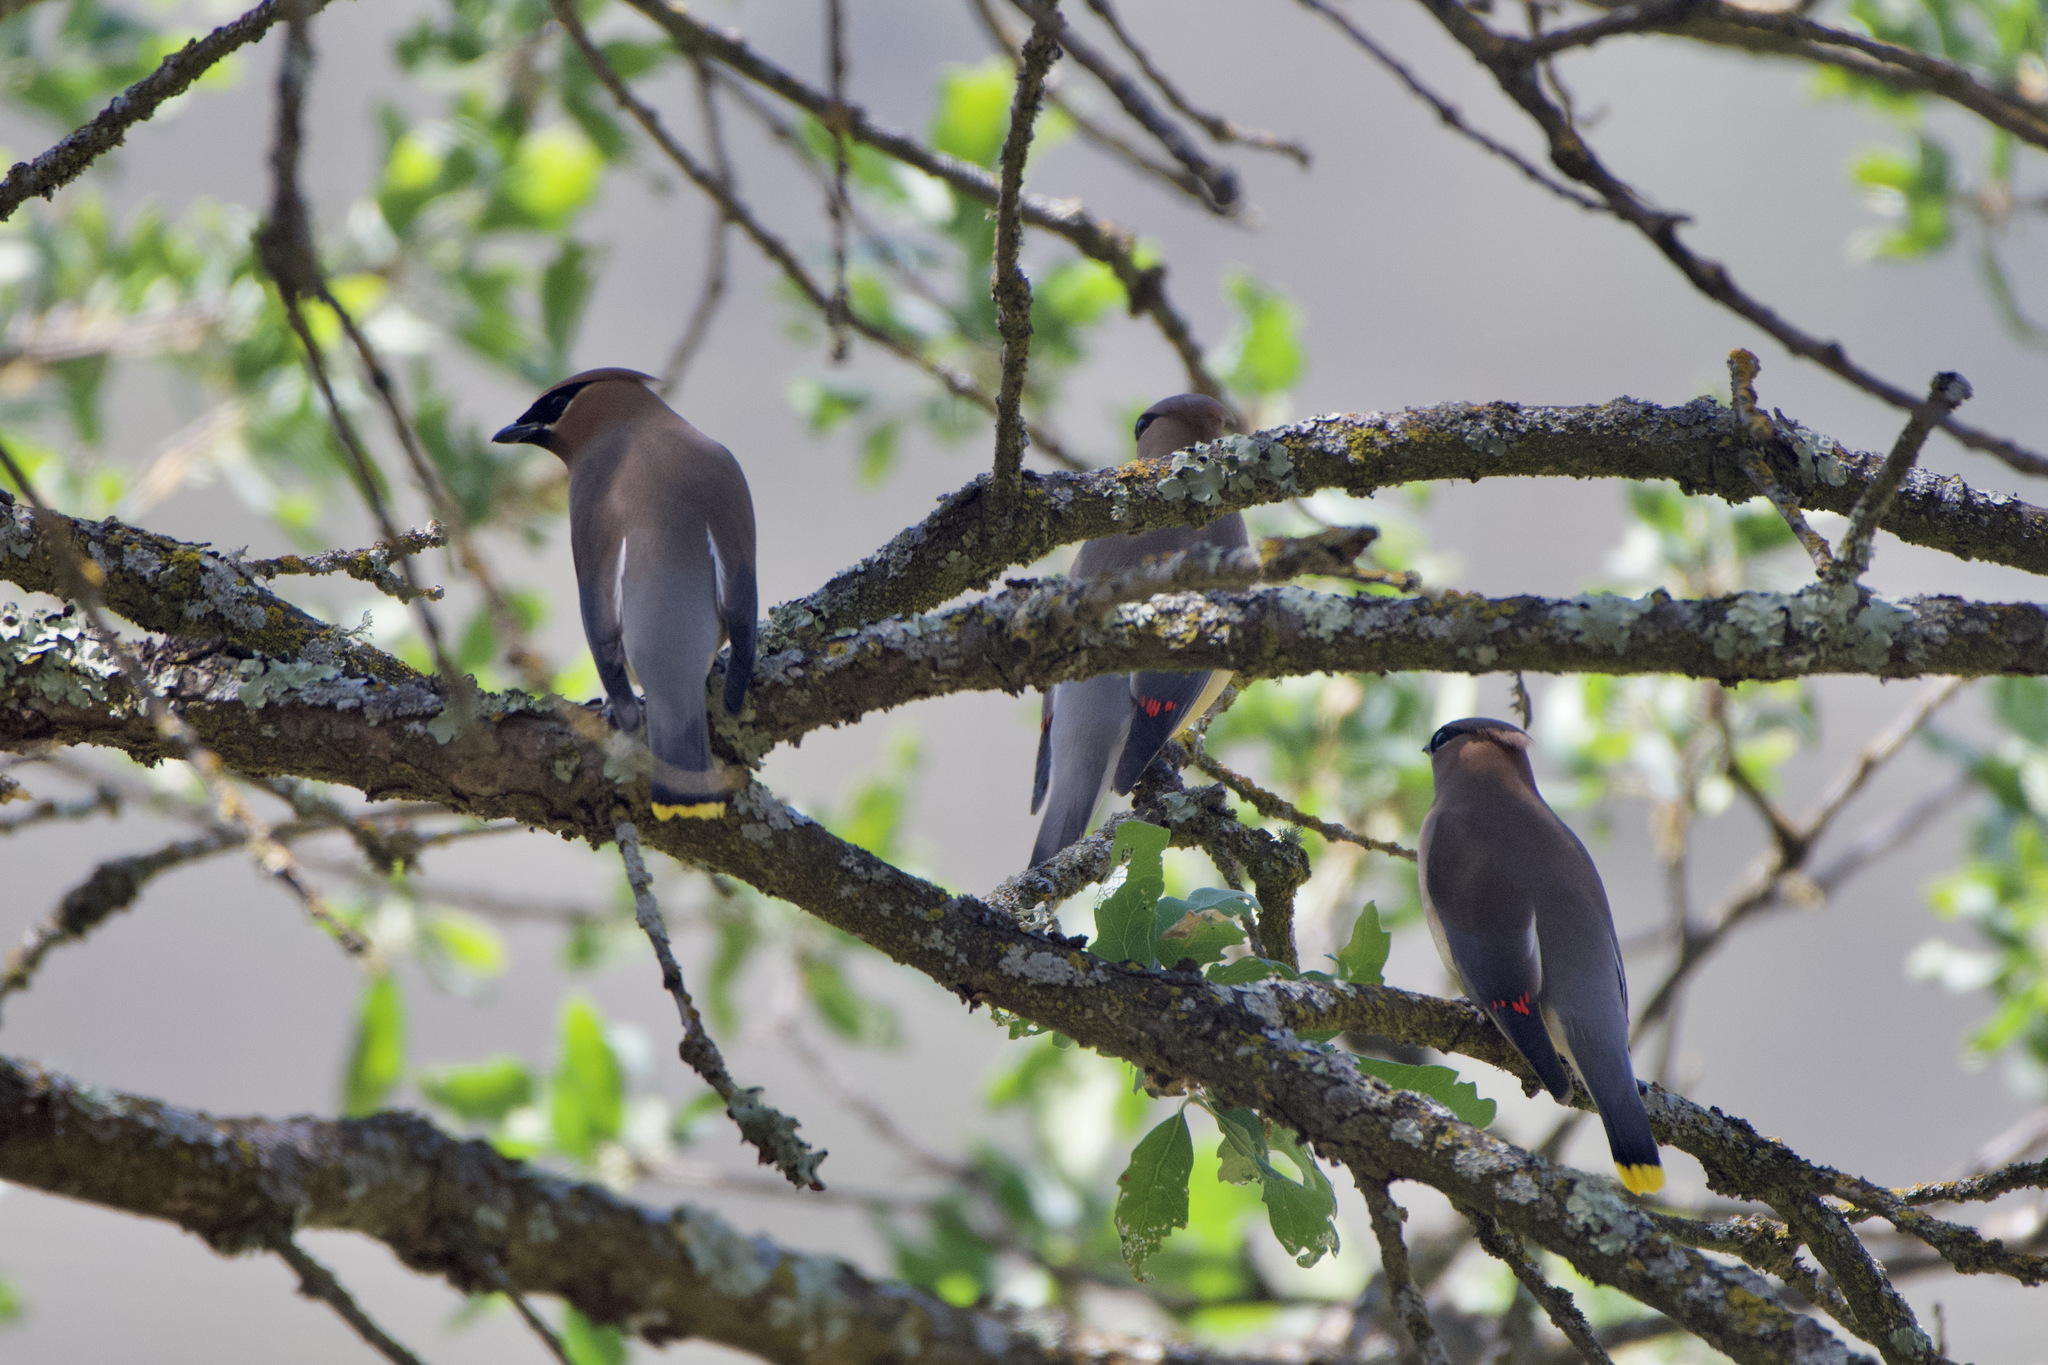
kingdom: Animalia
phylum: Chordata
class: Aves
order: Passeriformes
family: Bombycillidae
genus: Bombycilla
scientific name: Bombycilla cedrorum
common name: Cedar waxwing
